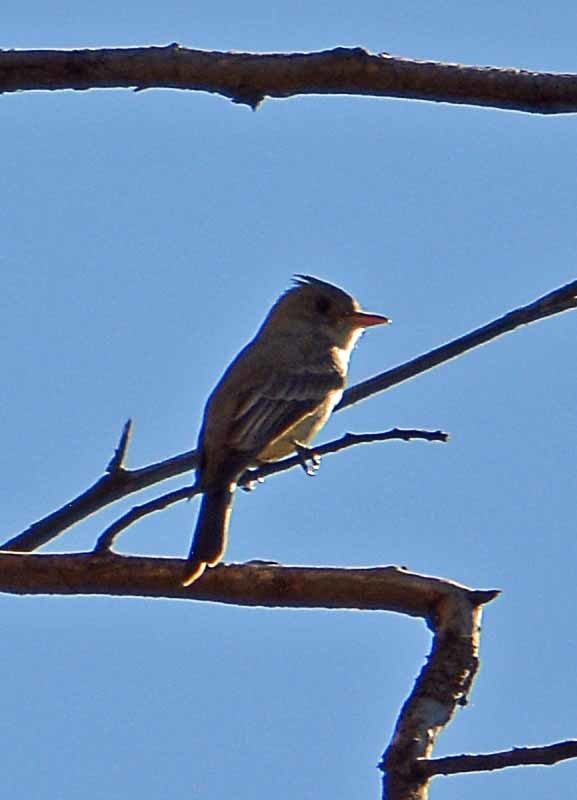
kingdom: Animalia
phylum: Chordata
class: Aves
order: Passeriformes
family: Tyrannidae
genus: Contopus
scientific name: Contopus pertinax
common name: Greater pewee
